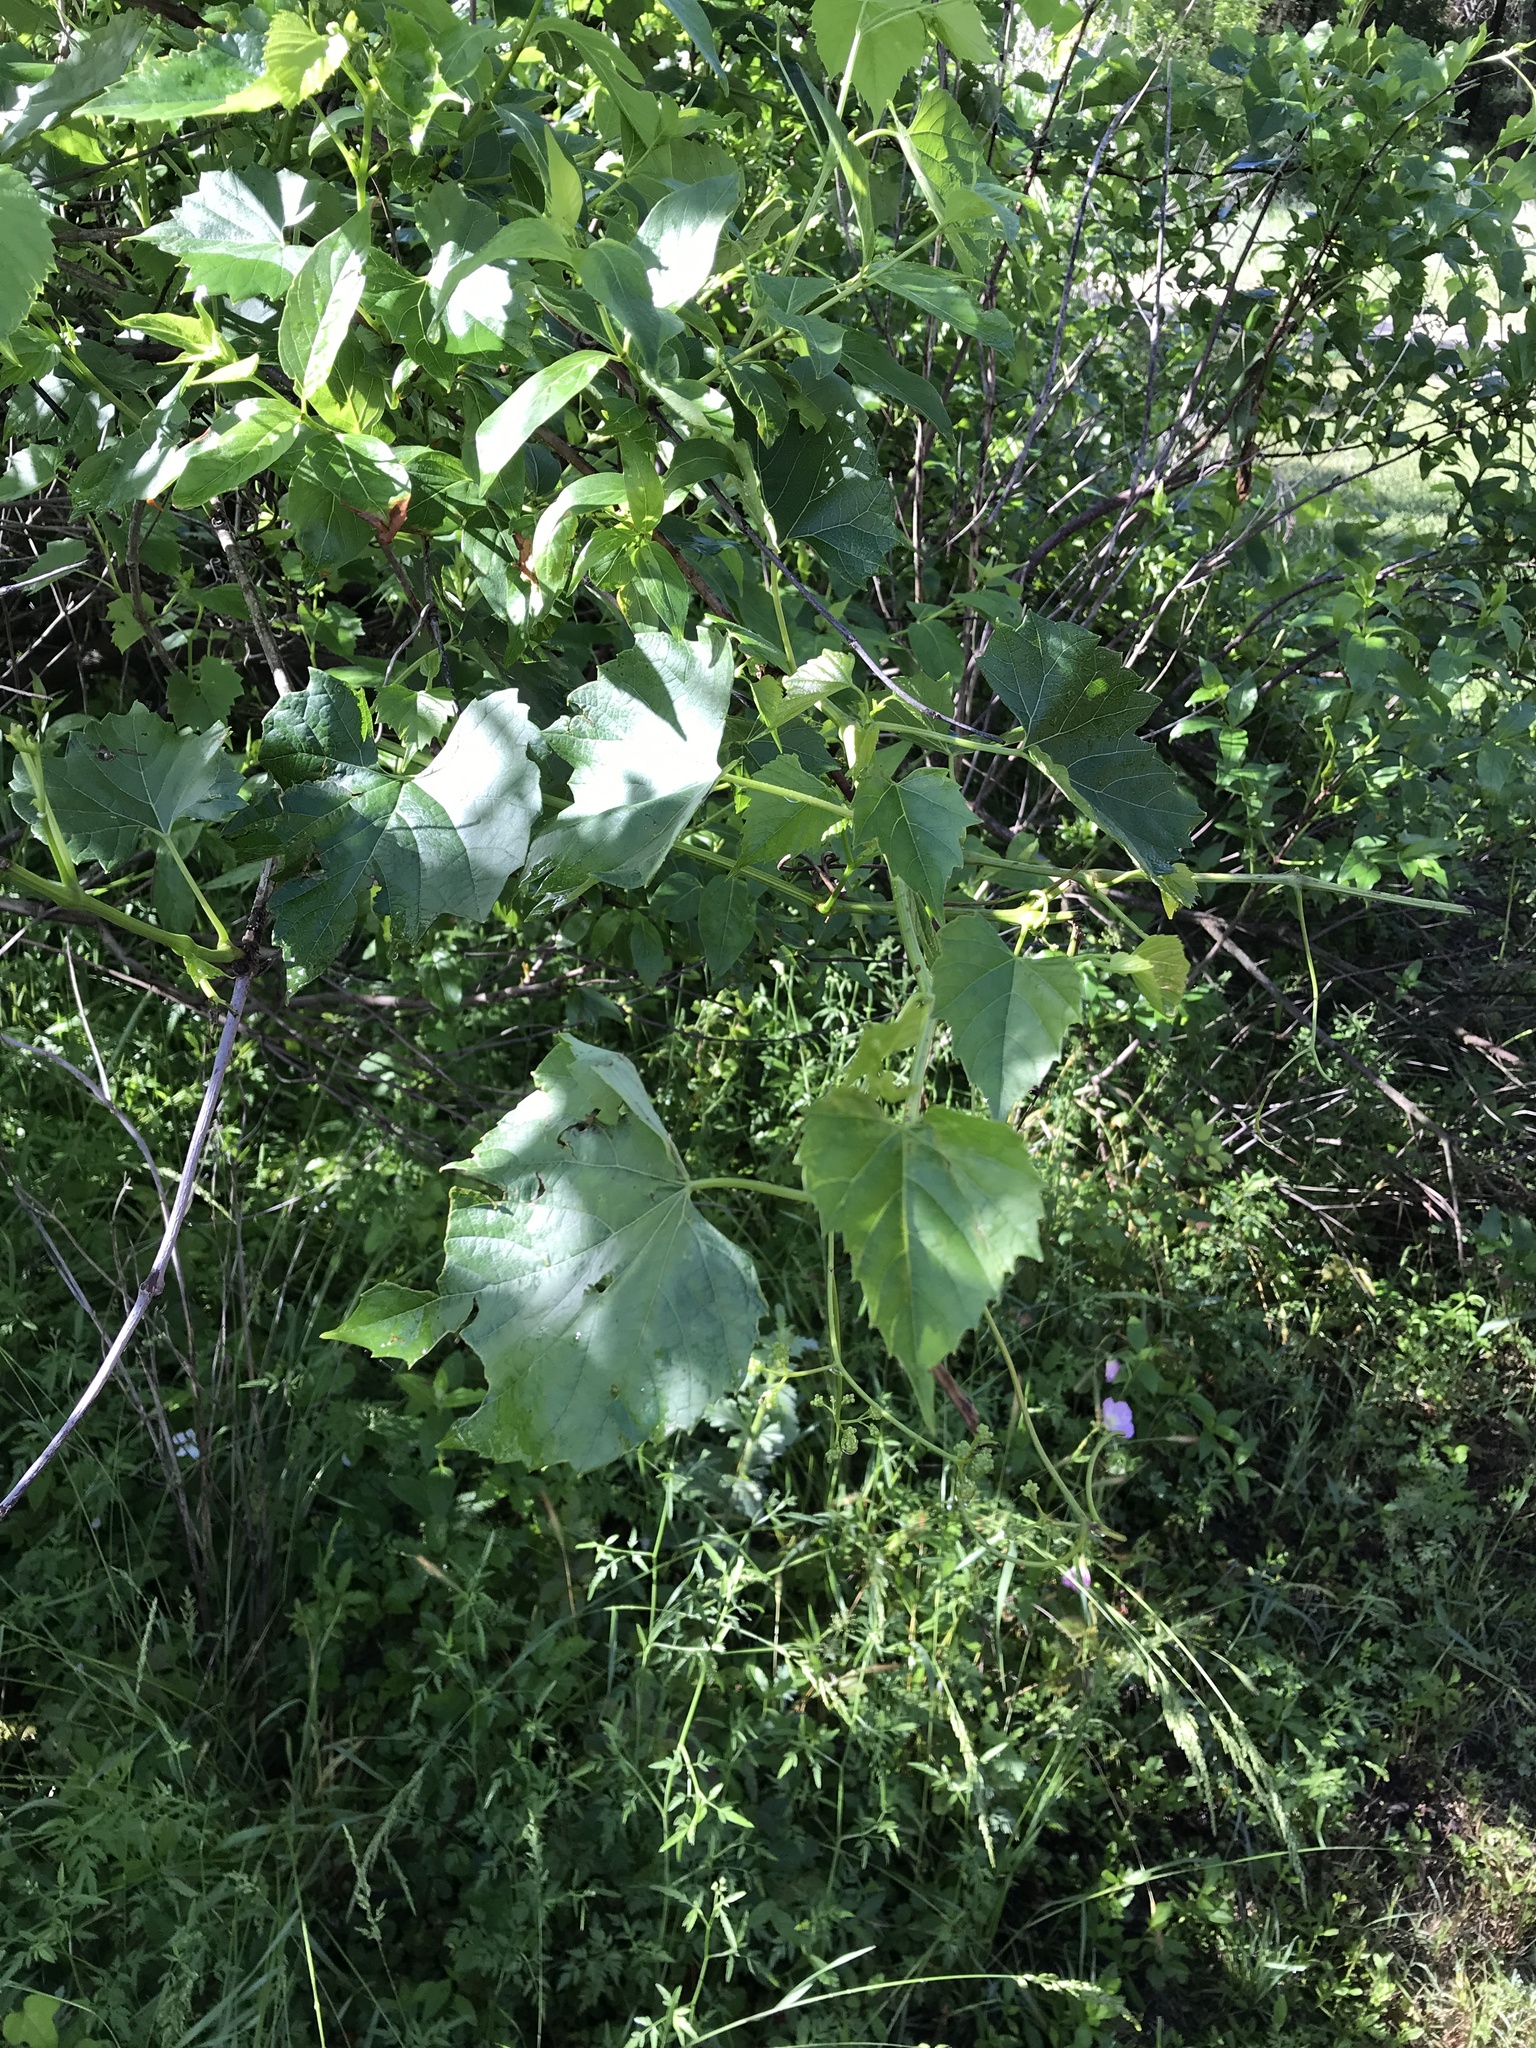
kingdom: Plantae
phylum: Tracheophyta
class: Magnoliopsida
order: Vitales
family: Vitaceae
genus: Ampelopsis
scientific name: Ampelopsis cordata
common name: Heart-leaf ampelopsis
